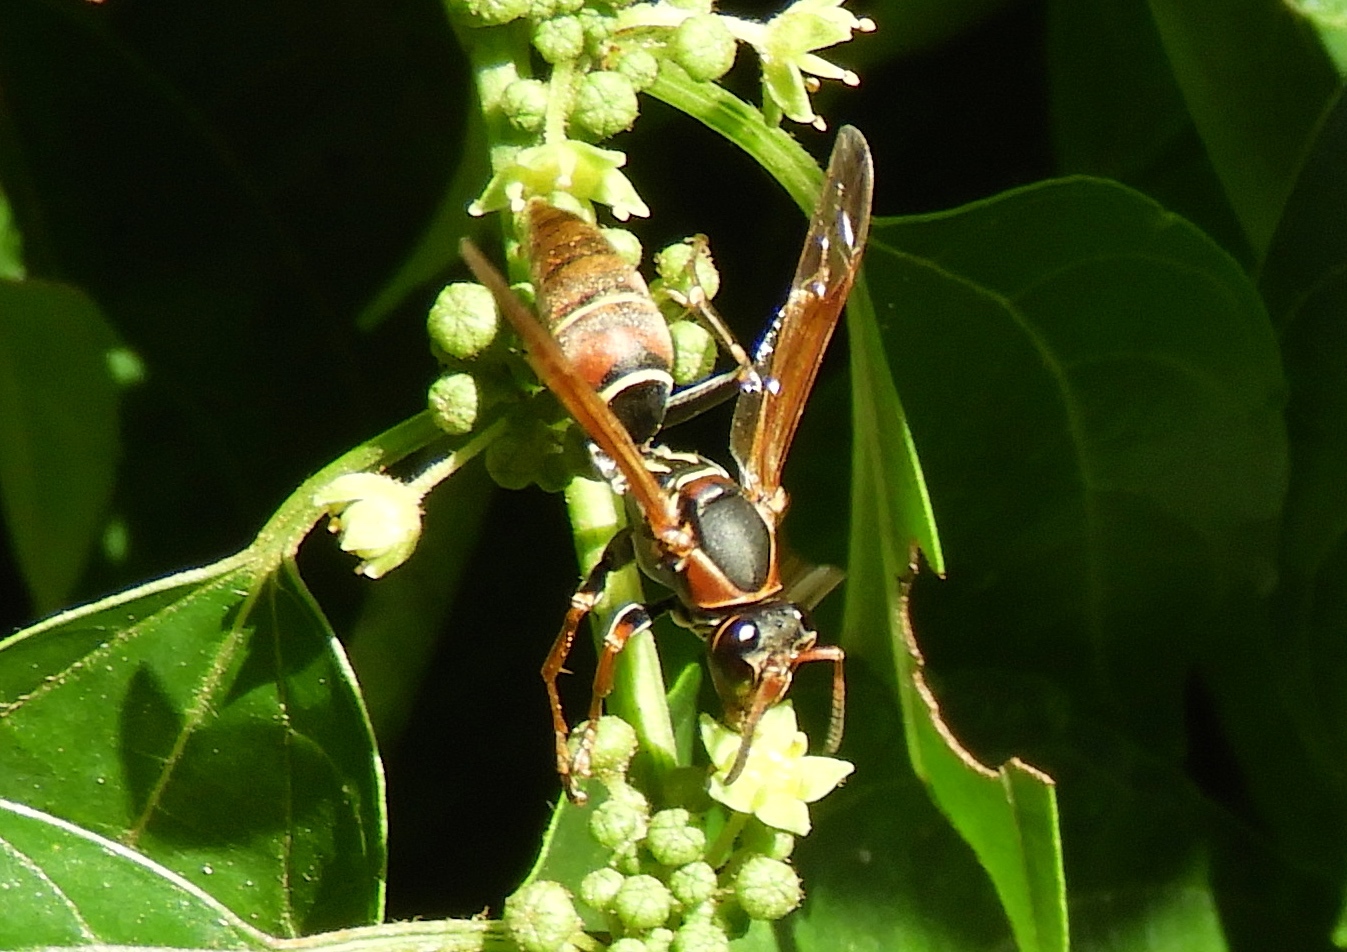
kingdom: Animalia
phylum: Arthropoda
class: Insecta
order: Hymenoptera
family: Eumenidae
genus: Polistes
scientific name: Polistes pacificus
